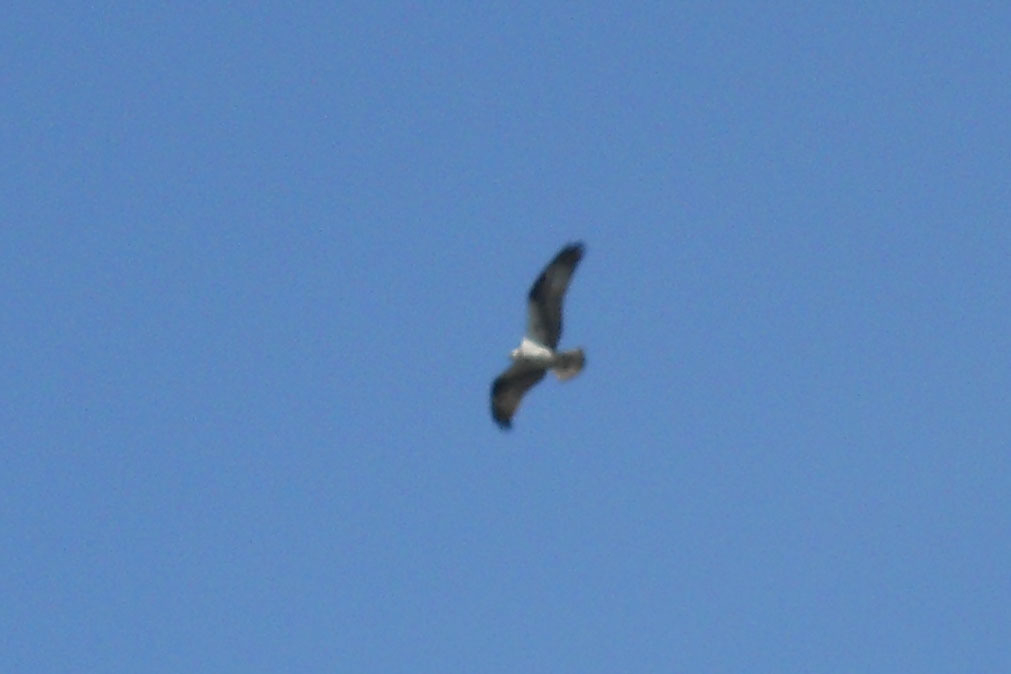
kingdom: Animalia
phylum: Chordata
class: Aves
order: Accipitriformes
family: Pandionidae
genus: Pandion
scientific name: Pandion haliaetus
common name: Osprey
